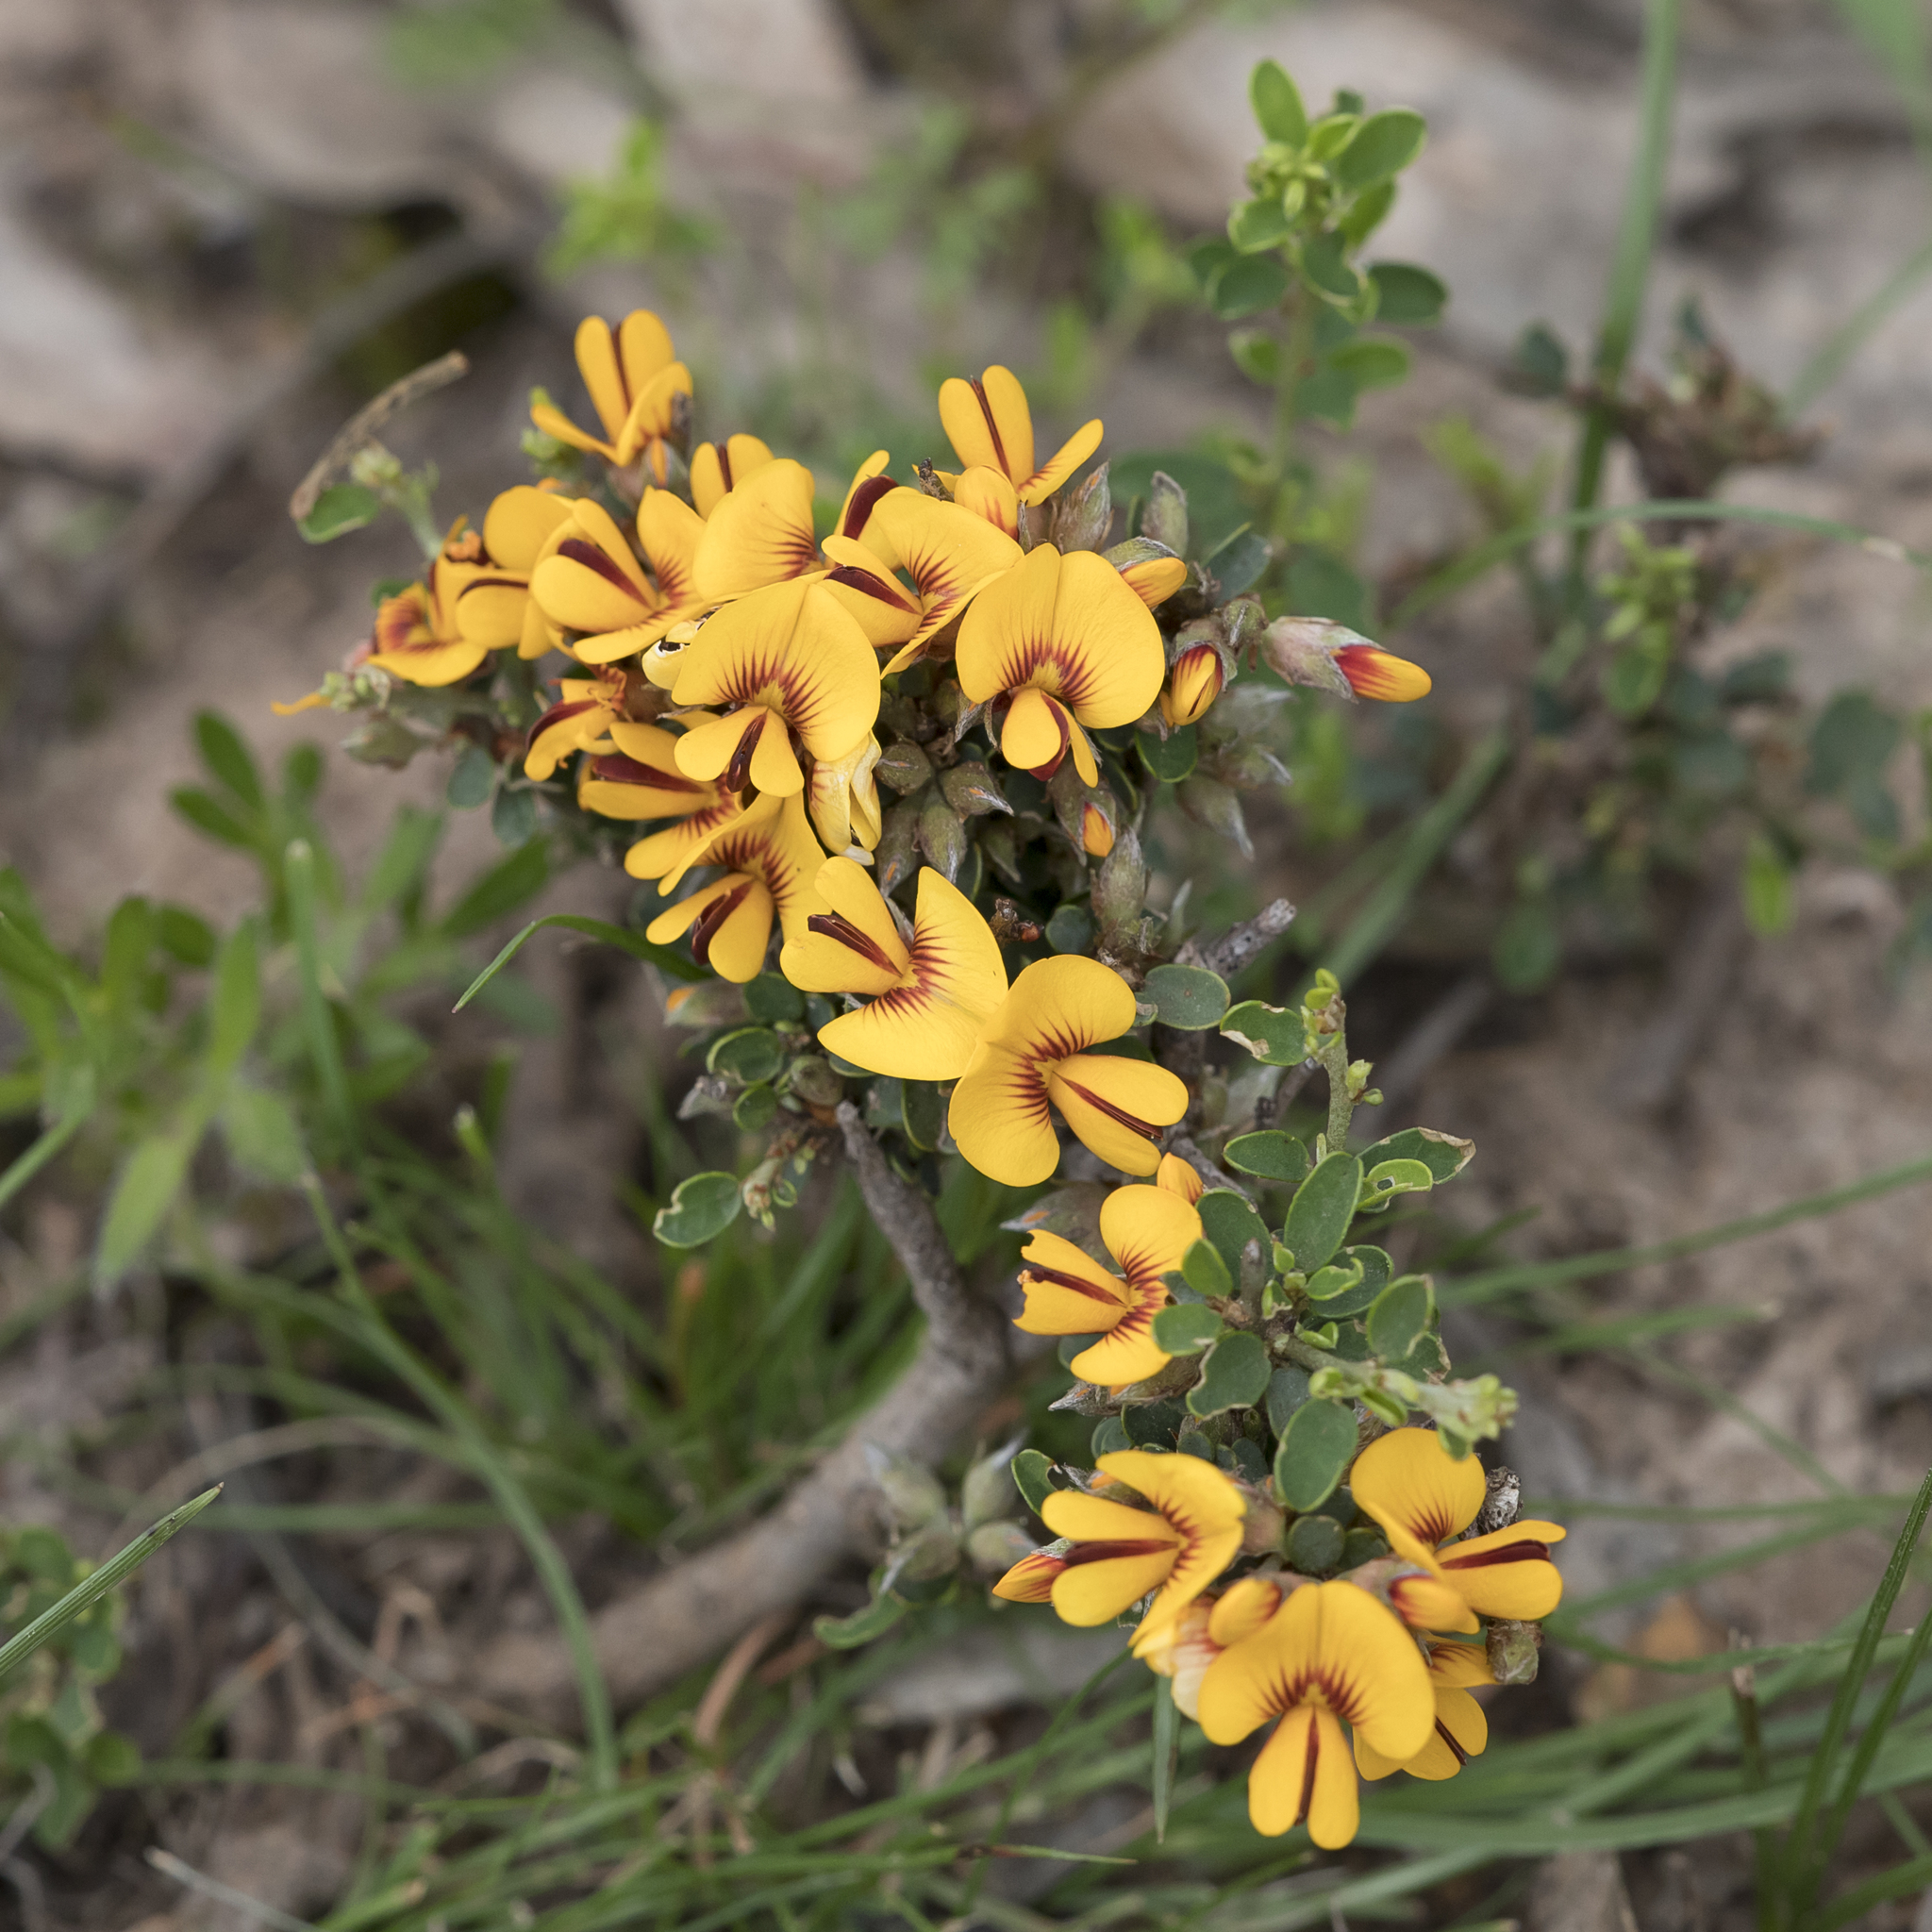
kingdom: Plantae
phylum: Tracheophyta
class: Magnoliopsida
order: Fabales
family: Fabaceae
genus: Pultenaea
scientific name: Pultenaea largiflorens
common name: Twiggy bush-pea
